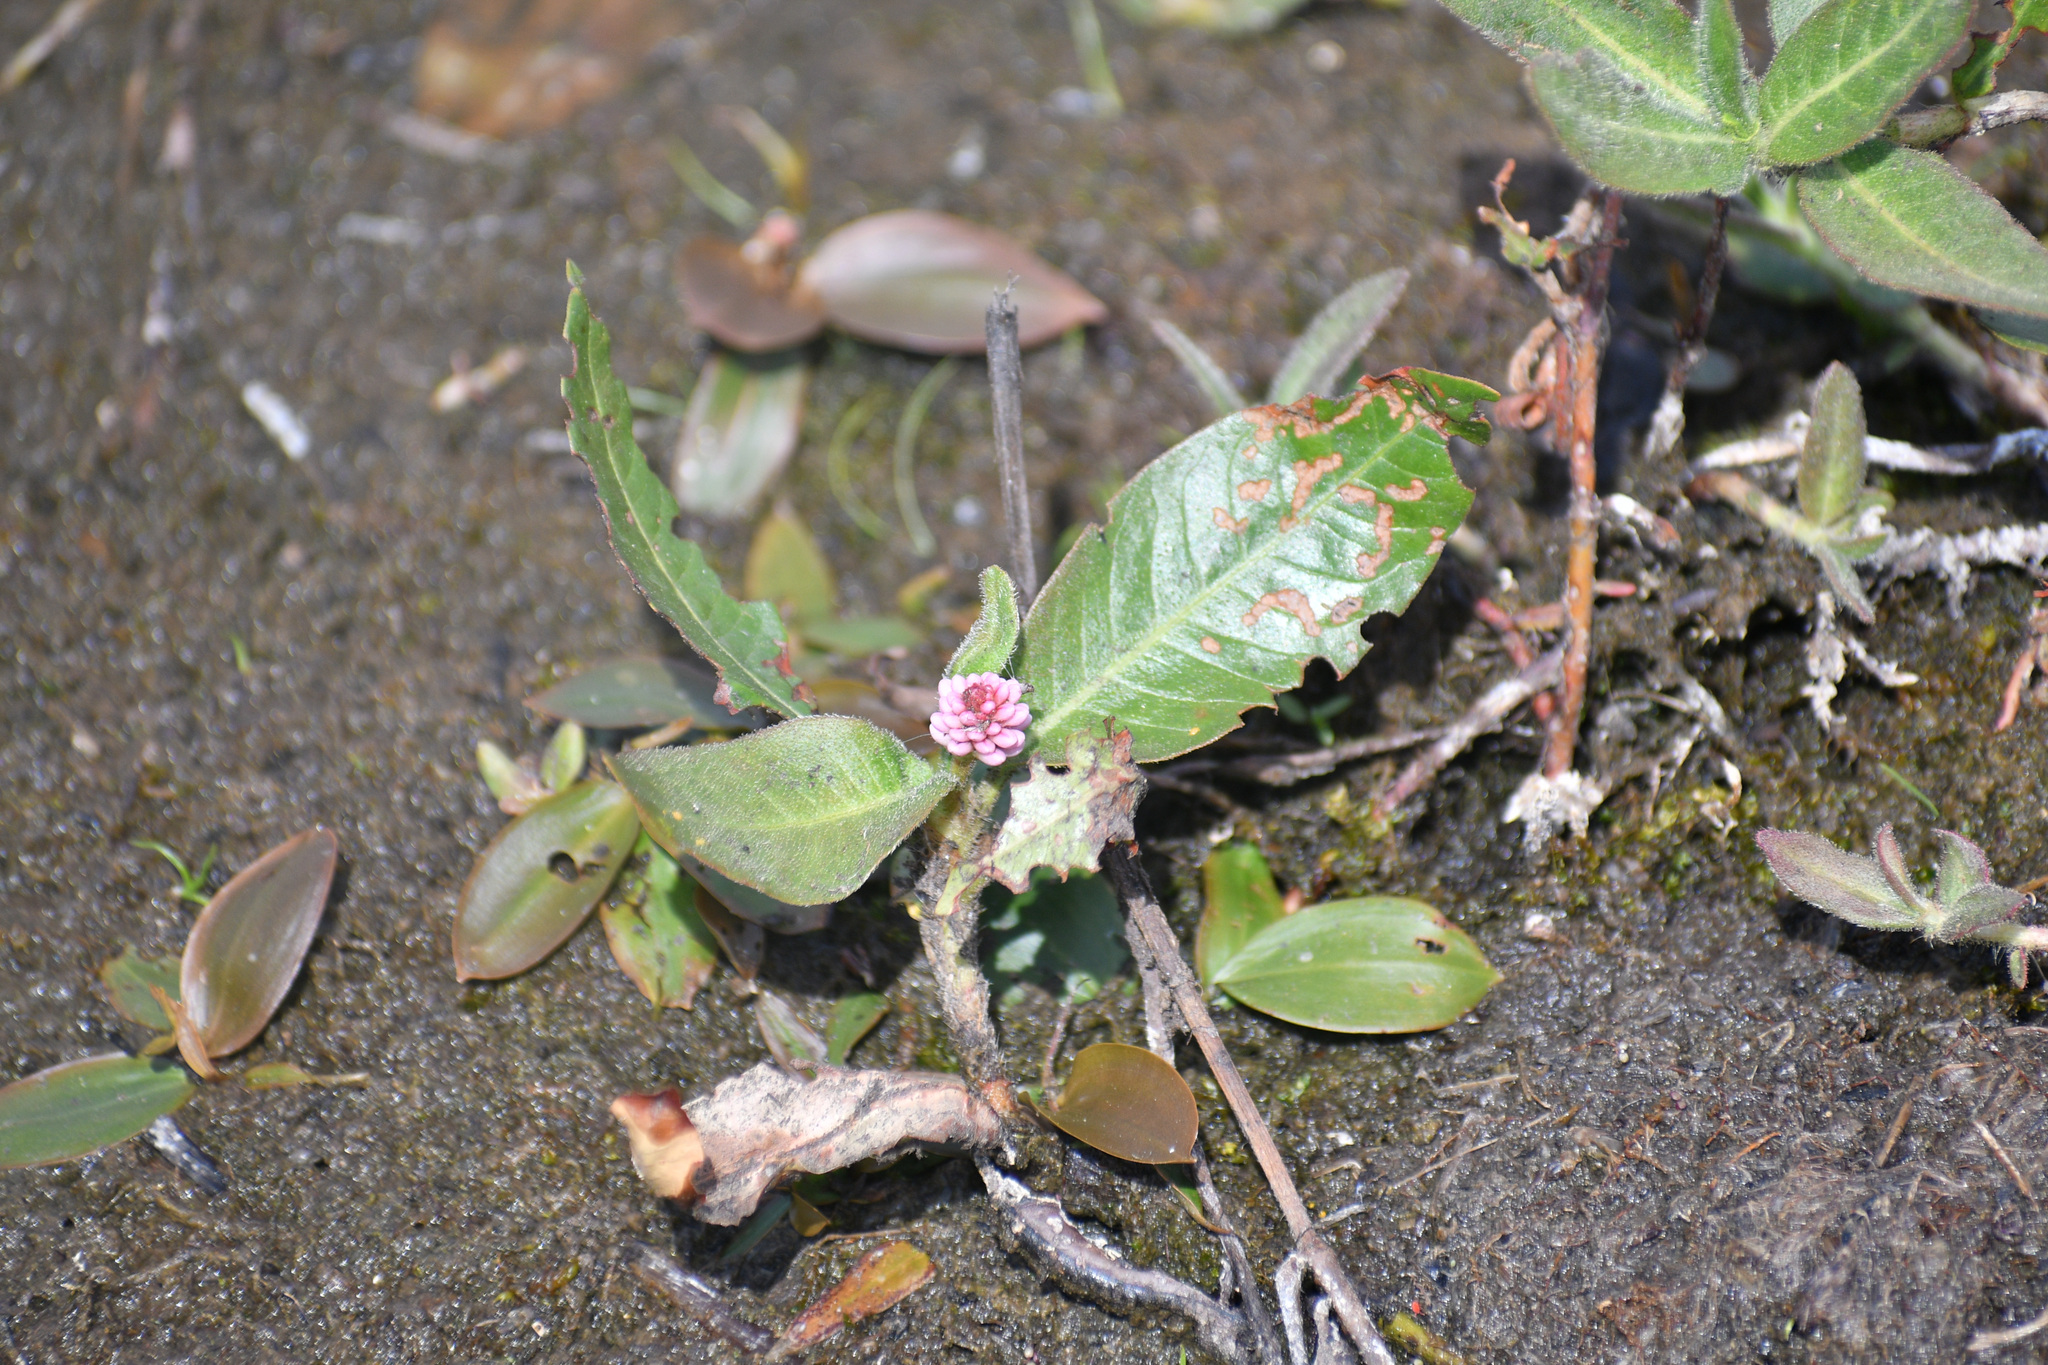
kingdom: Plantae
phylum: Tracheophyta
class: Magnoliopsida
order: Caryophyllales
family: Polygonaceae
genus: Persicaria
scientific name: Persicaria amphibia
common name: Amphibious bistort
